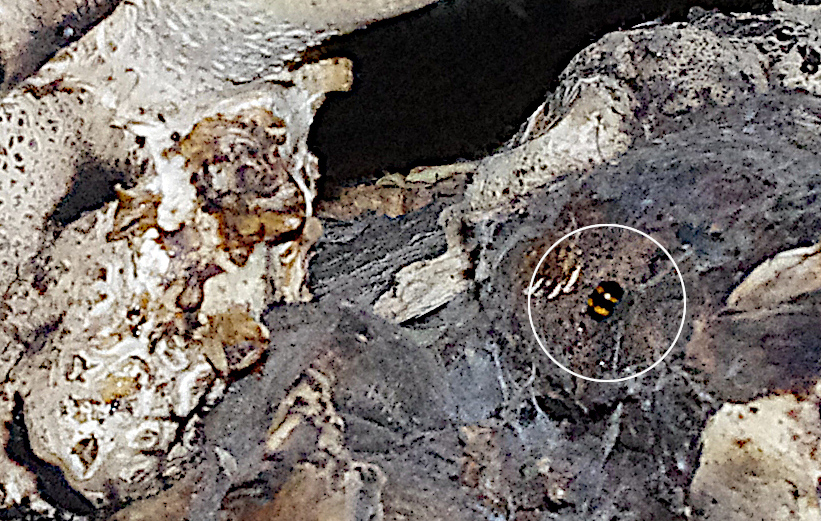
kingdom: Animalia
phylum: Arthropoda
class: Insecta
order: Coleoptera
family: Tenebrionidae
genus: Diaperis
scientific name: Diaperis boleti
